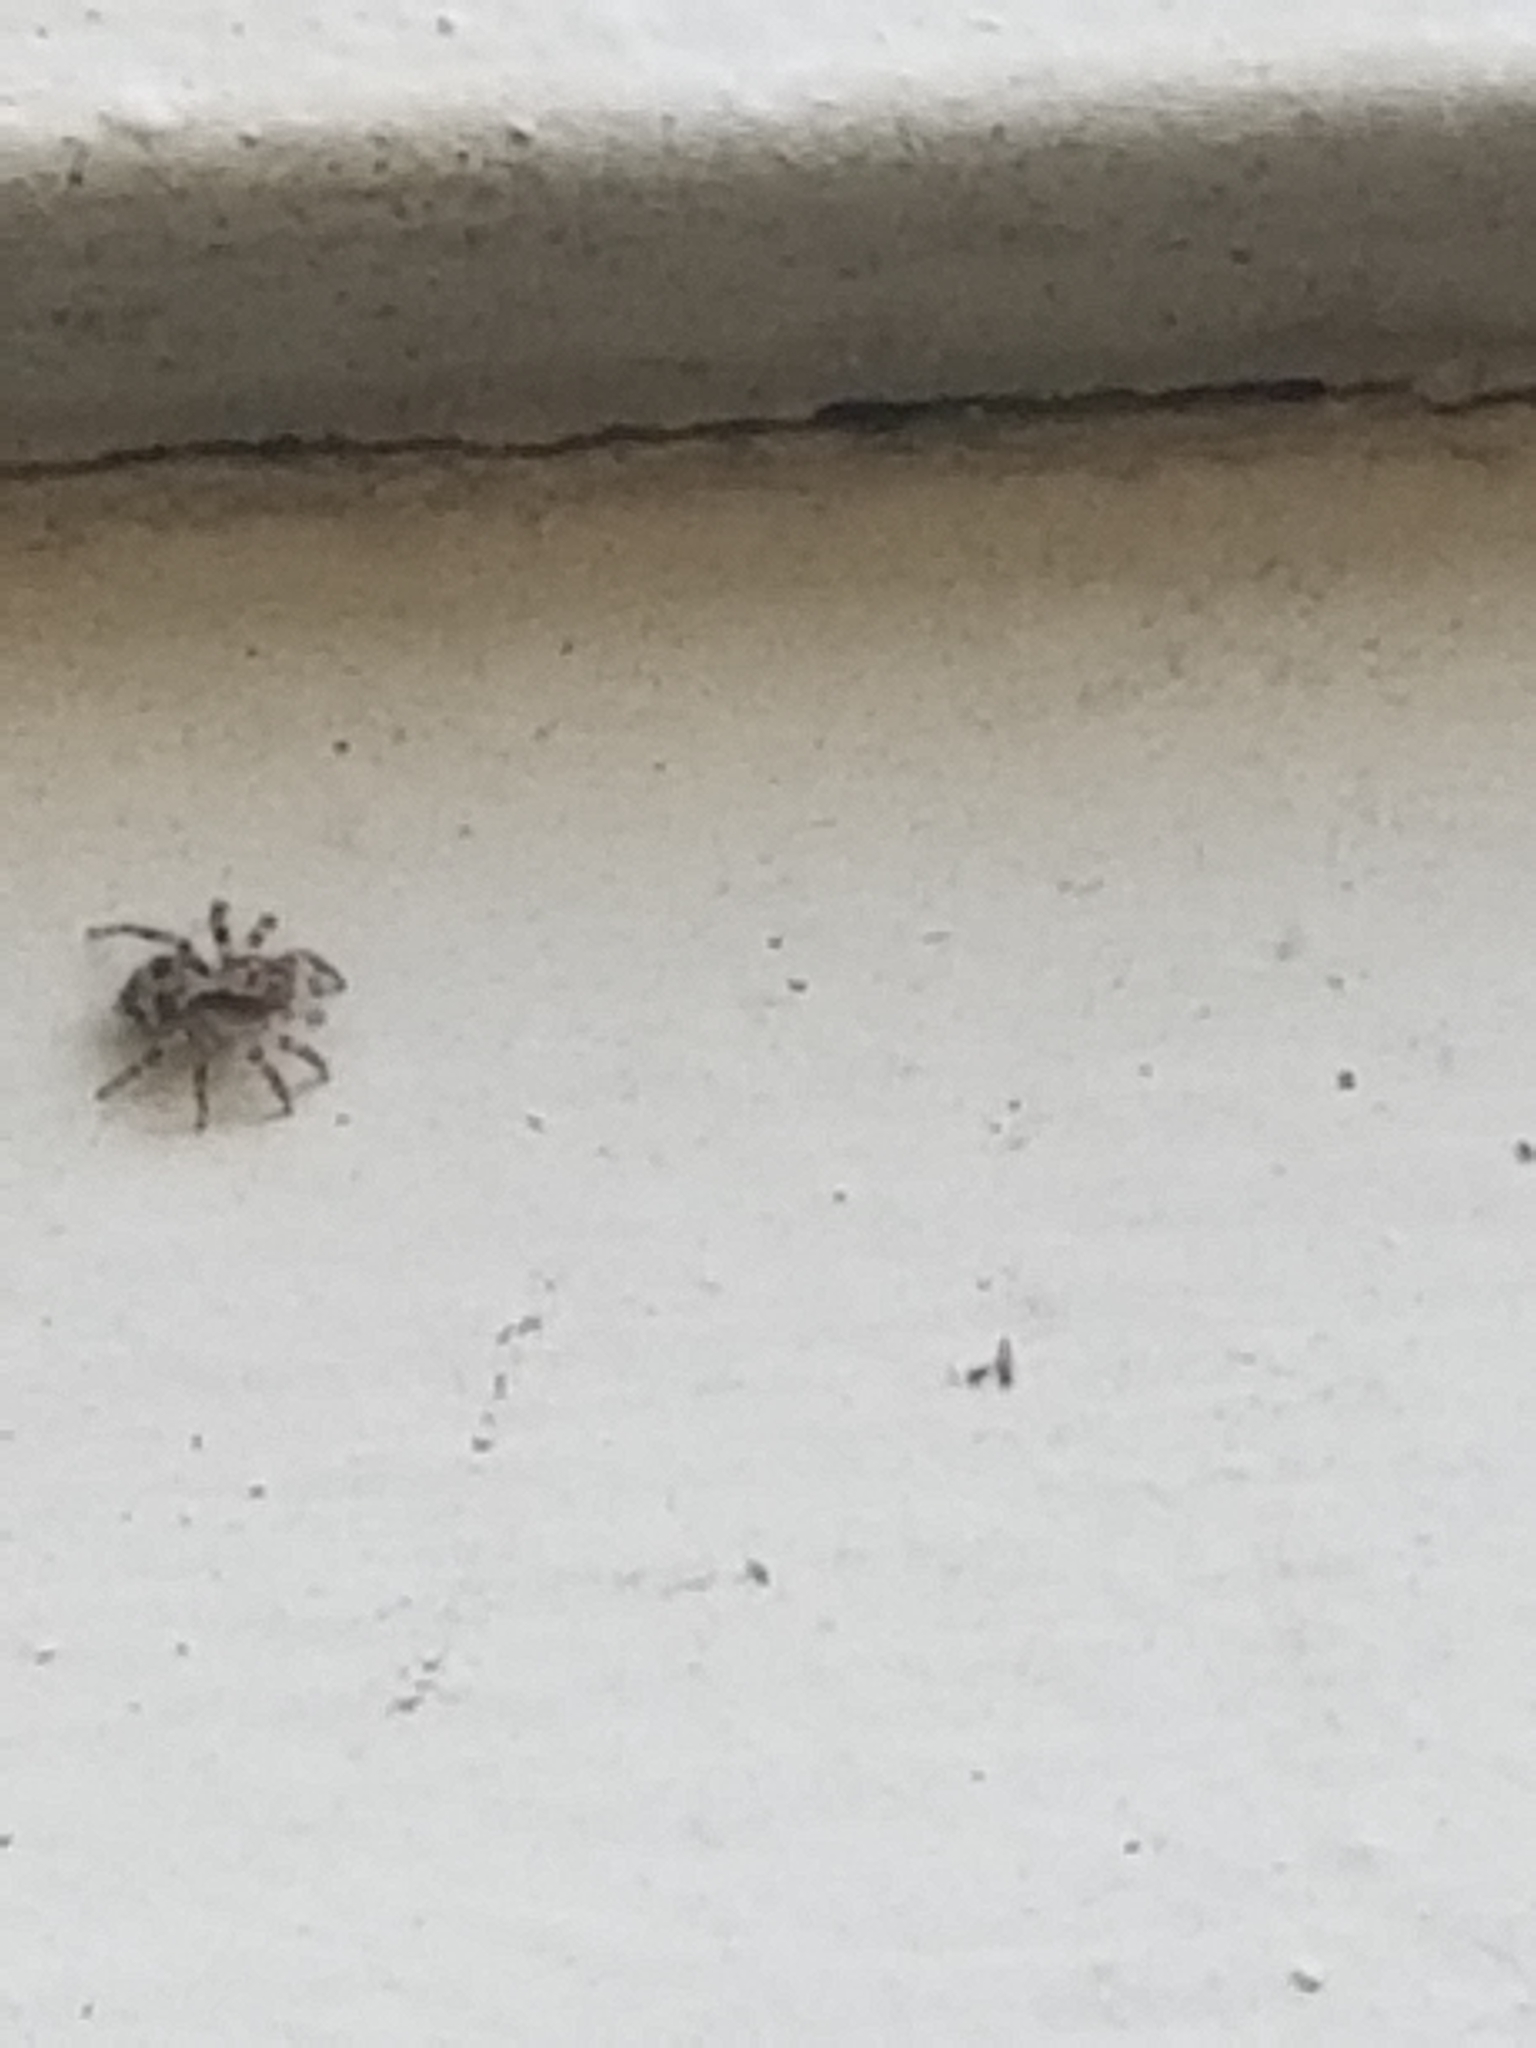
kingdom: Animalia
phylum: Arthropoda
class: Arachnida
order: Araneae
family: Salticidae
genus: Naphrys
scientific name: Naphrys pulex
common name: Flea jumping spider
